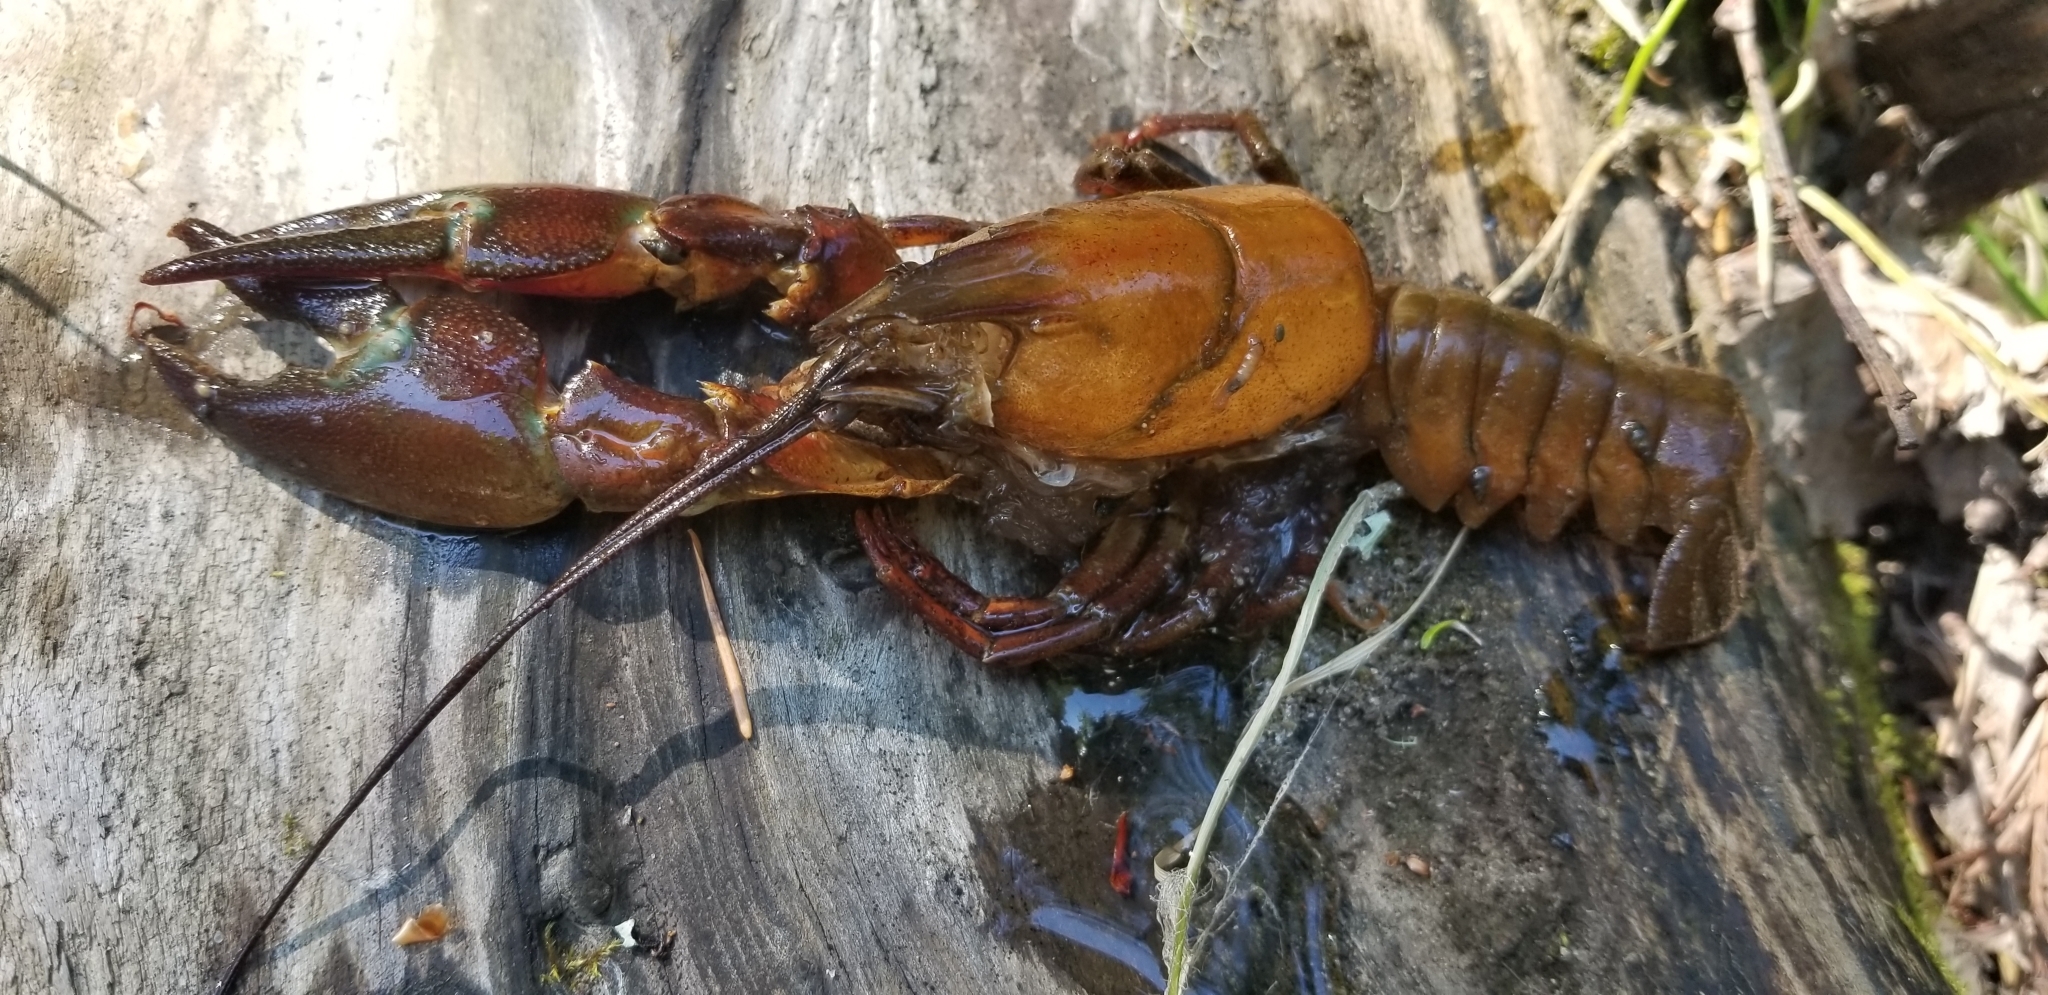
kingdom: Animalia
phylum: Arthropoda
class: Malacostraca
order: Decapoda
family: Astacidae
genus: Pacifastacus
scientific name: Pacifastacus leniusculus
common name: Signal crayfish
